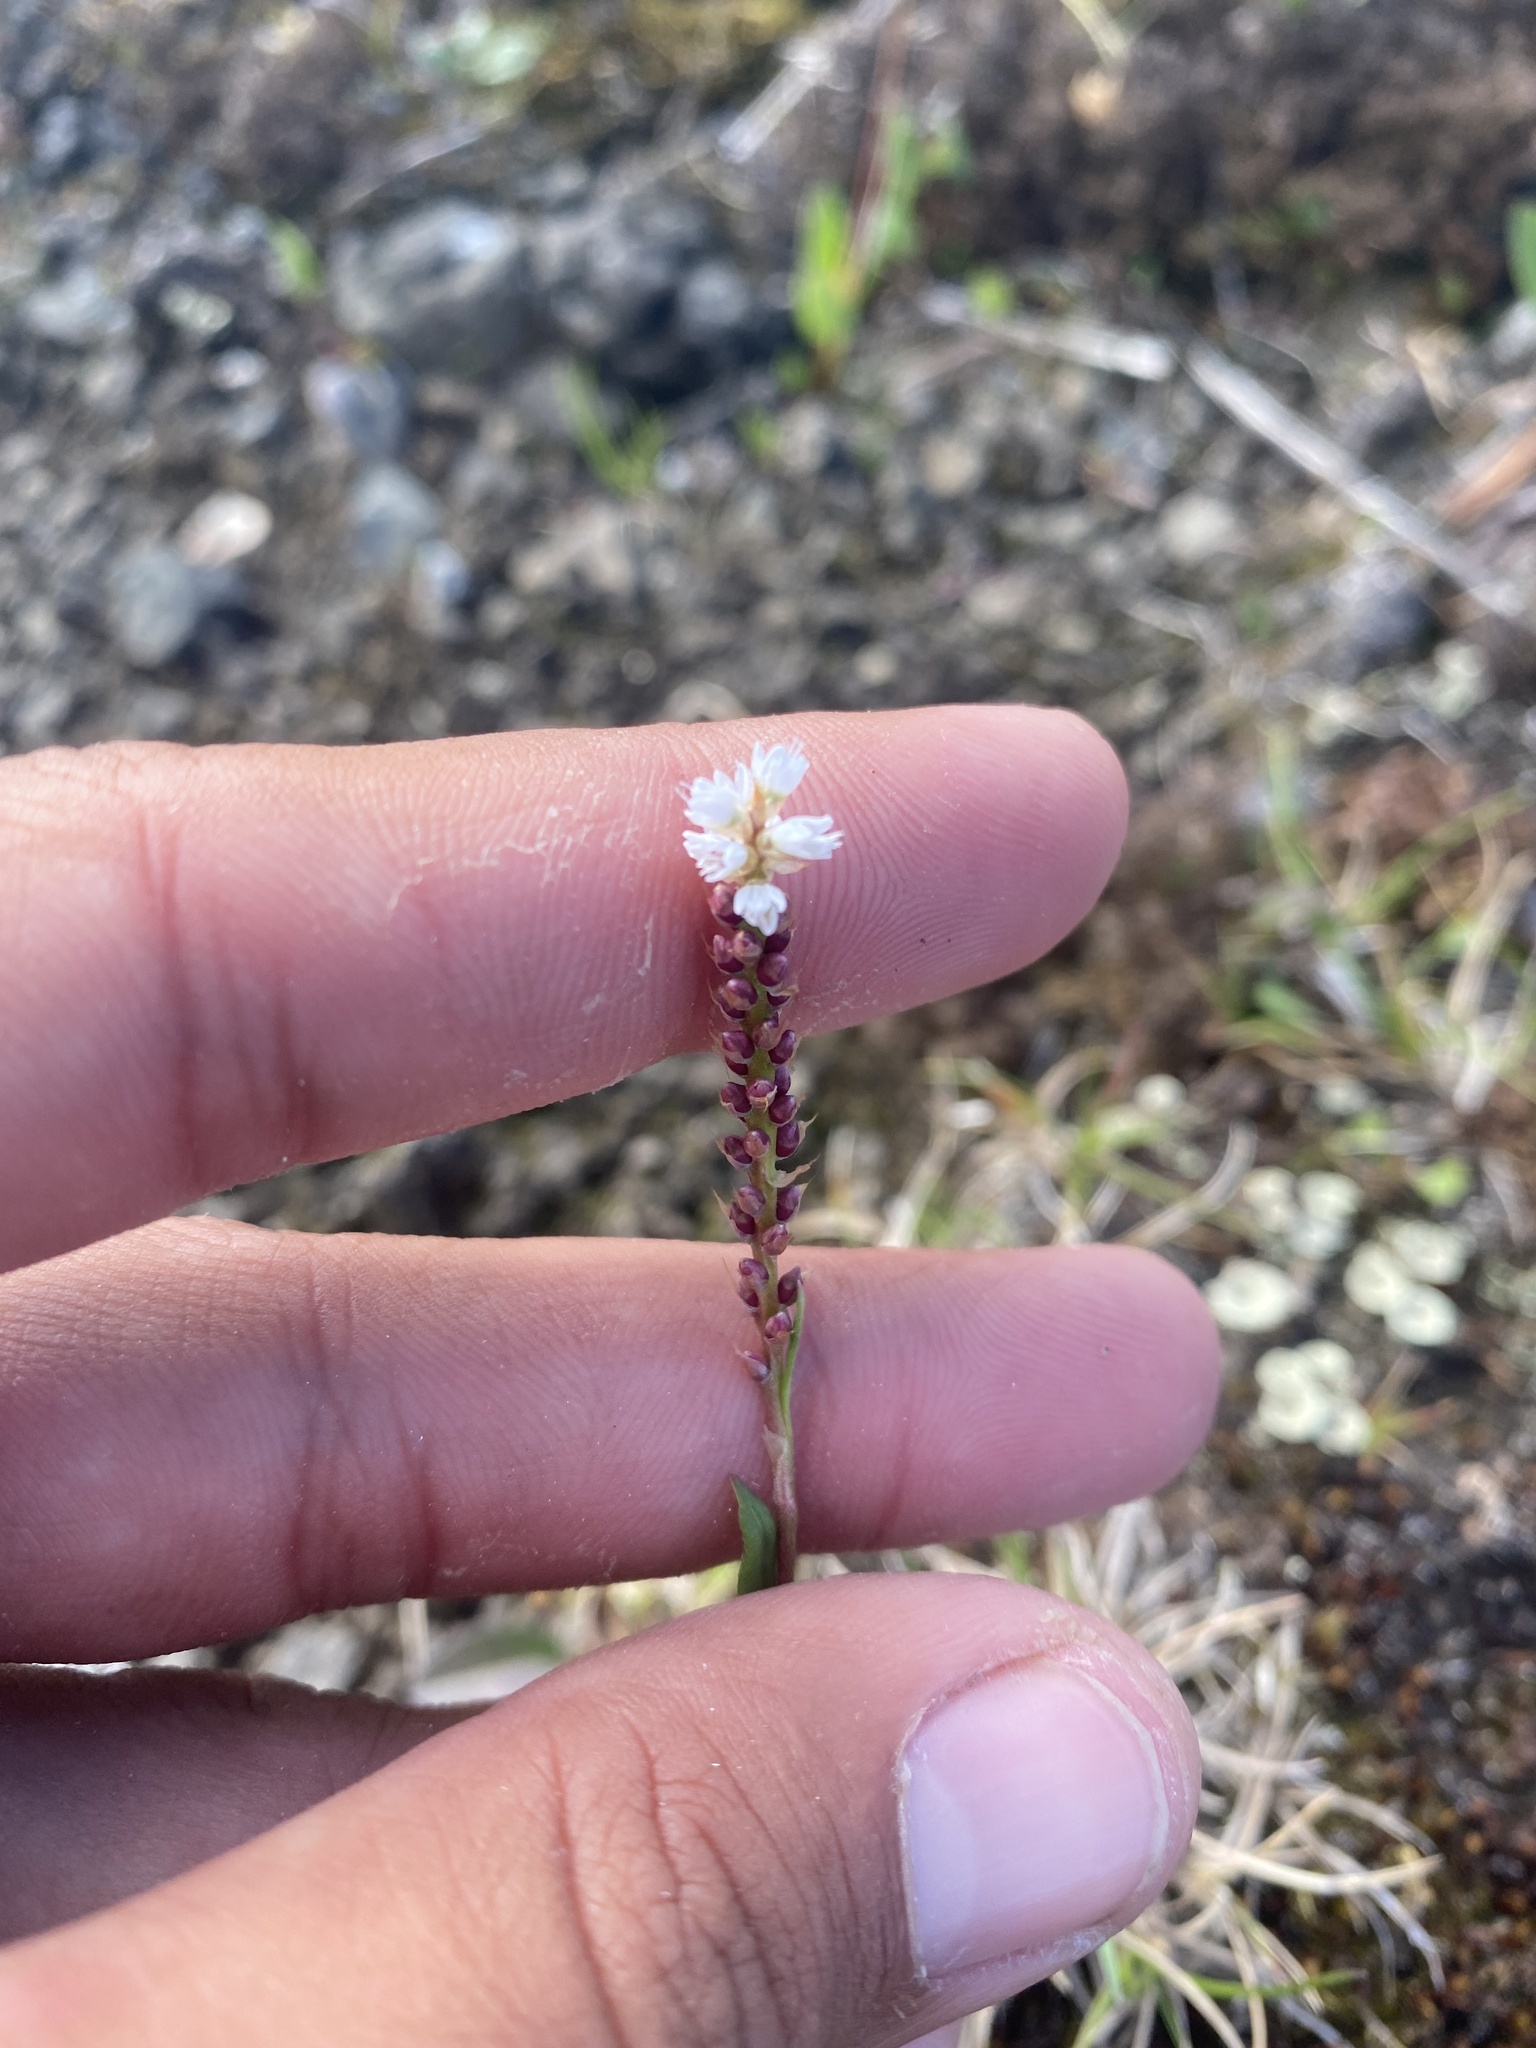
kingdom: Plantae
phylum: Tracheophyta
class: Magnoliopsida
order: Caryophyllales
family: Polygonaceae
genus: Bistorta
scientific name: Bistorta vivipara
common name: Alpine bistort
